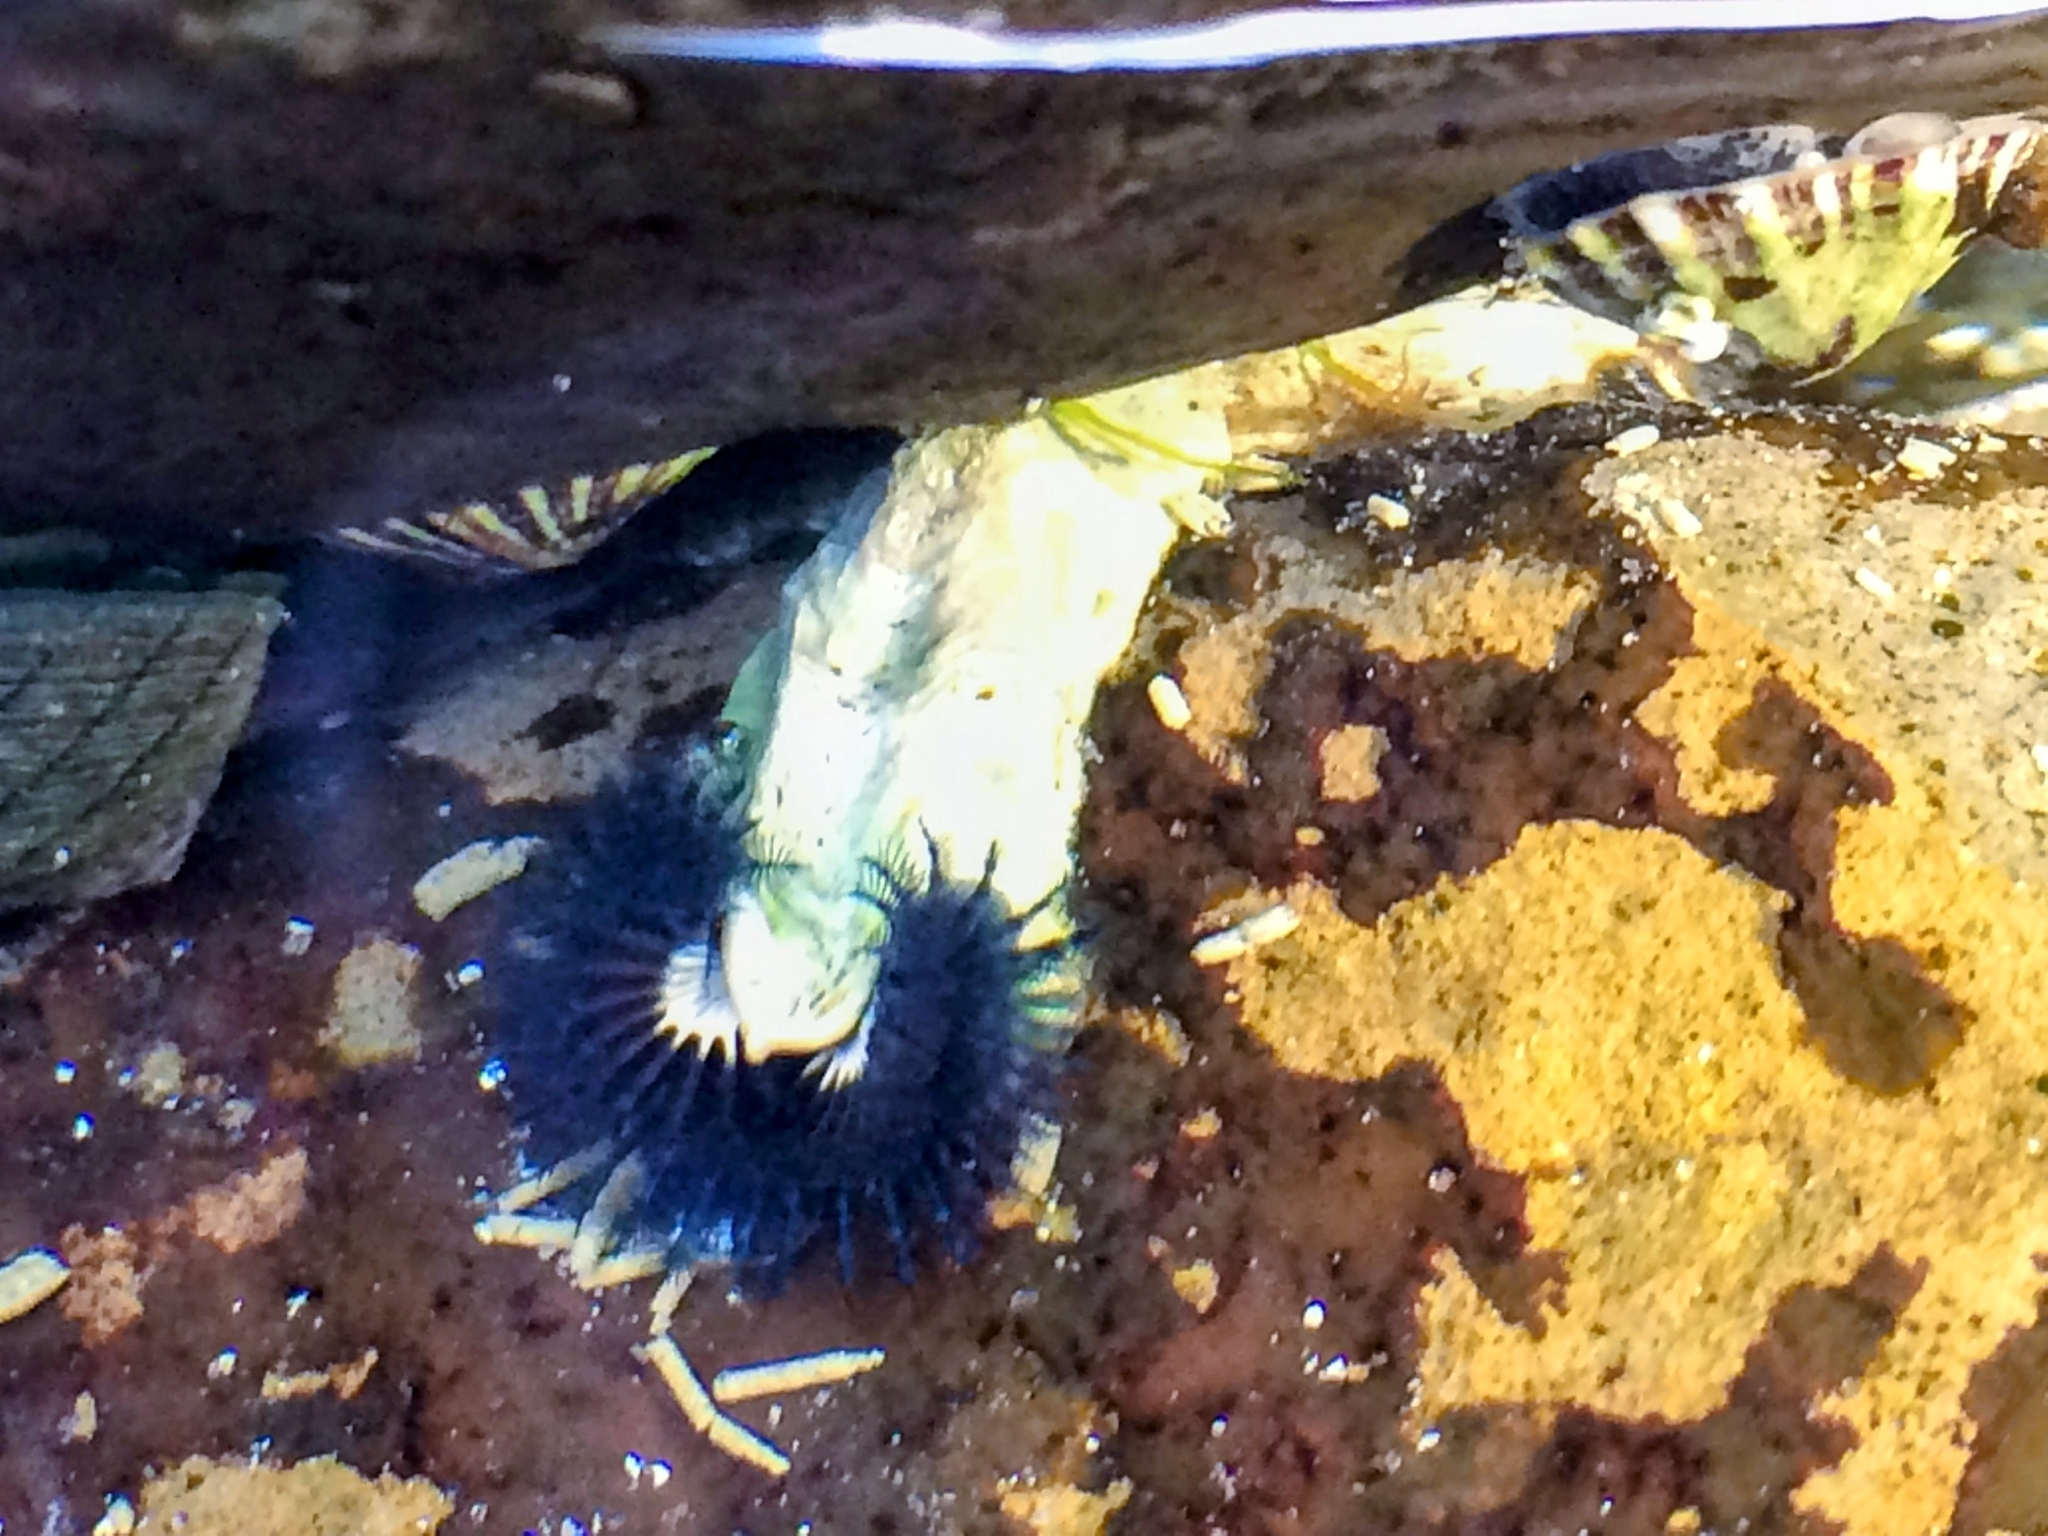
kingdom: Animalia
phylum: Annelida
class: Polychaeta
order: Sabellida
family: Serpulidae
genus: Spirobranchus
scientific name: Spirobranchus cariniferus
